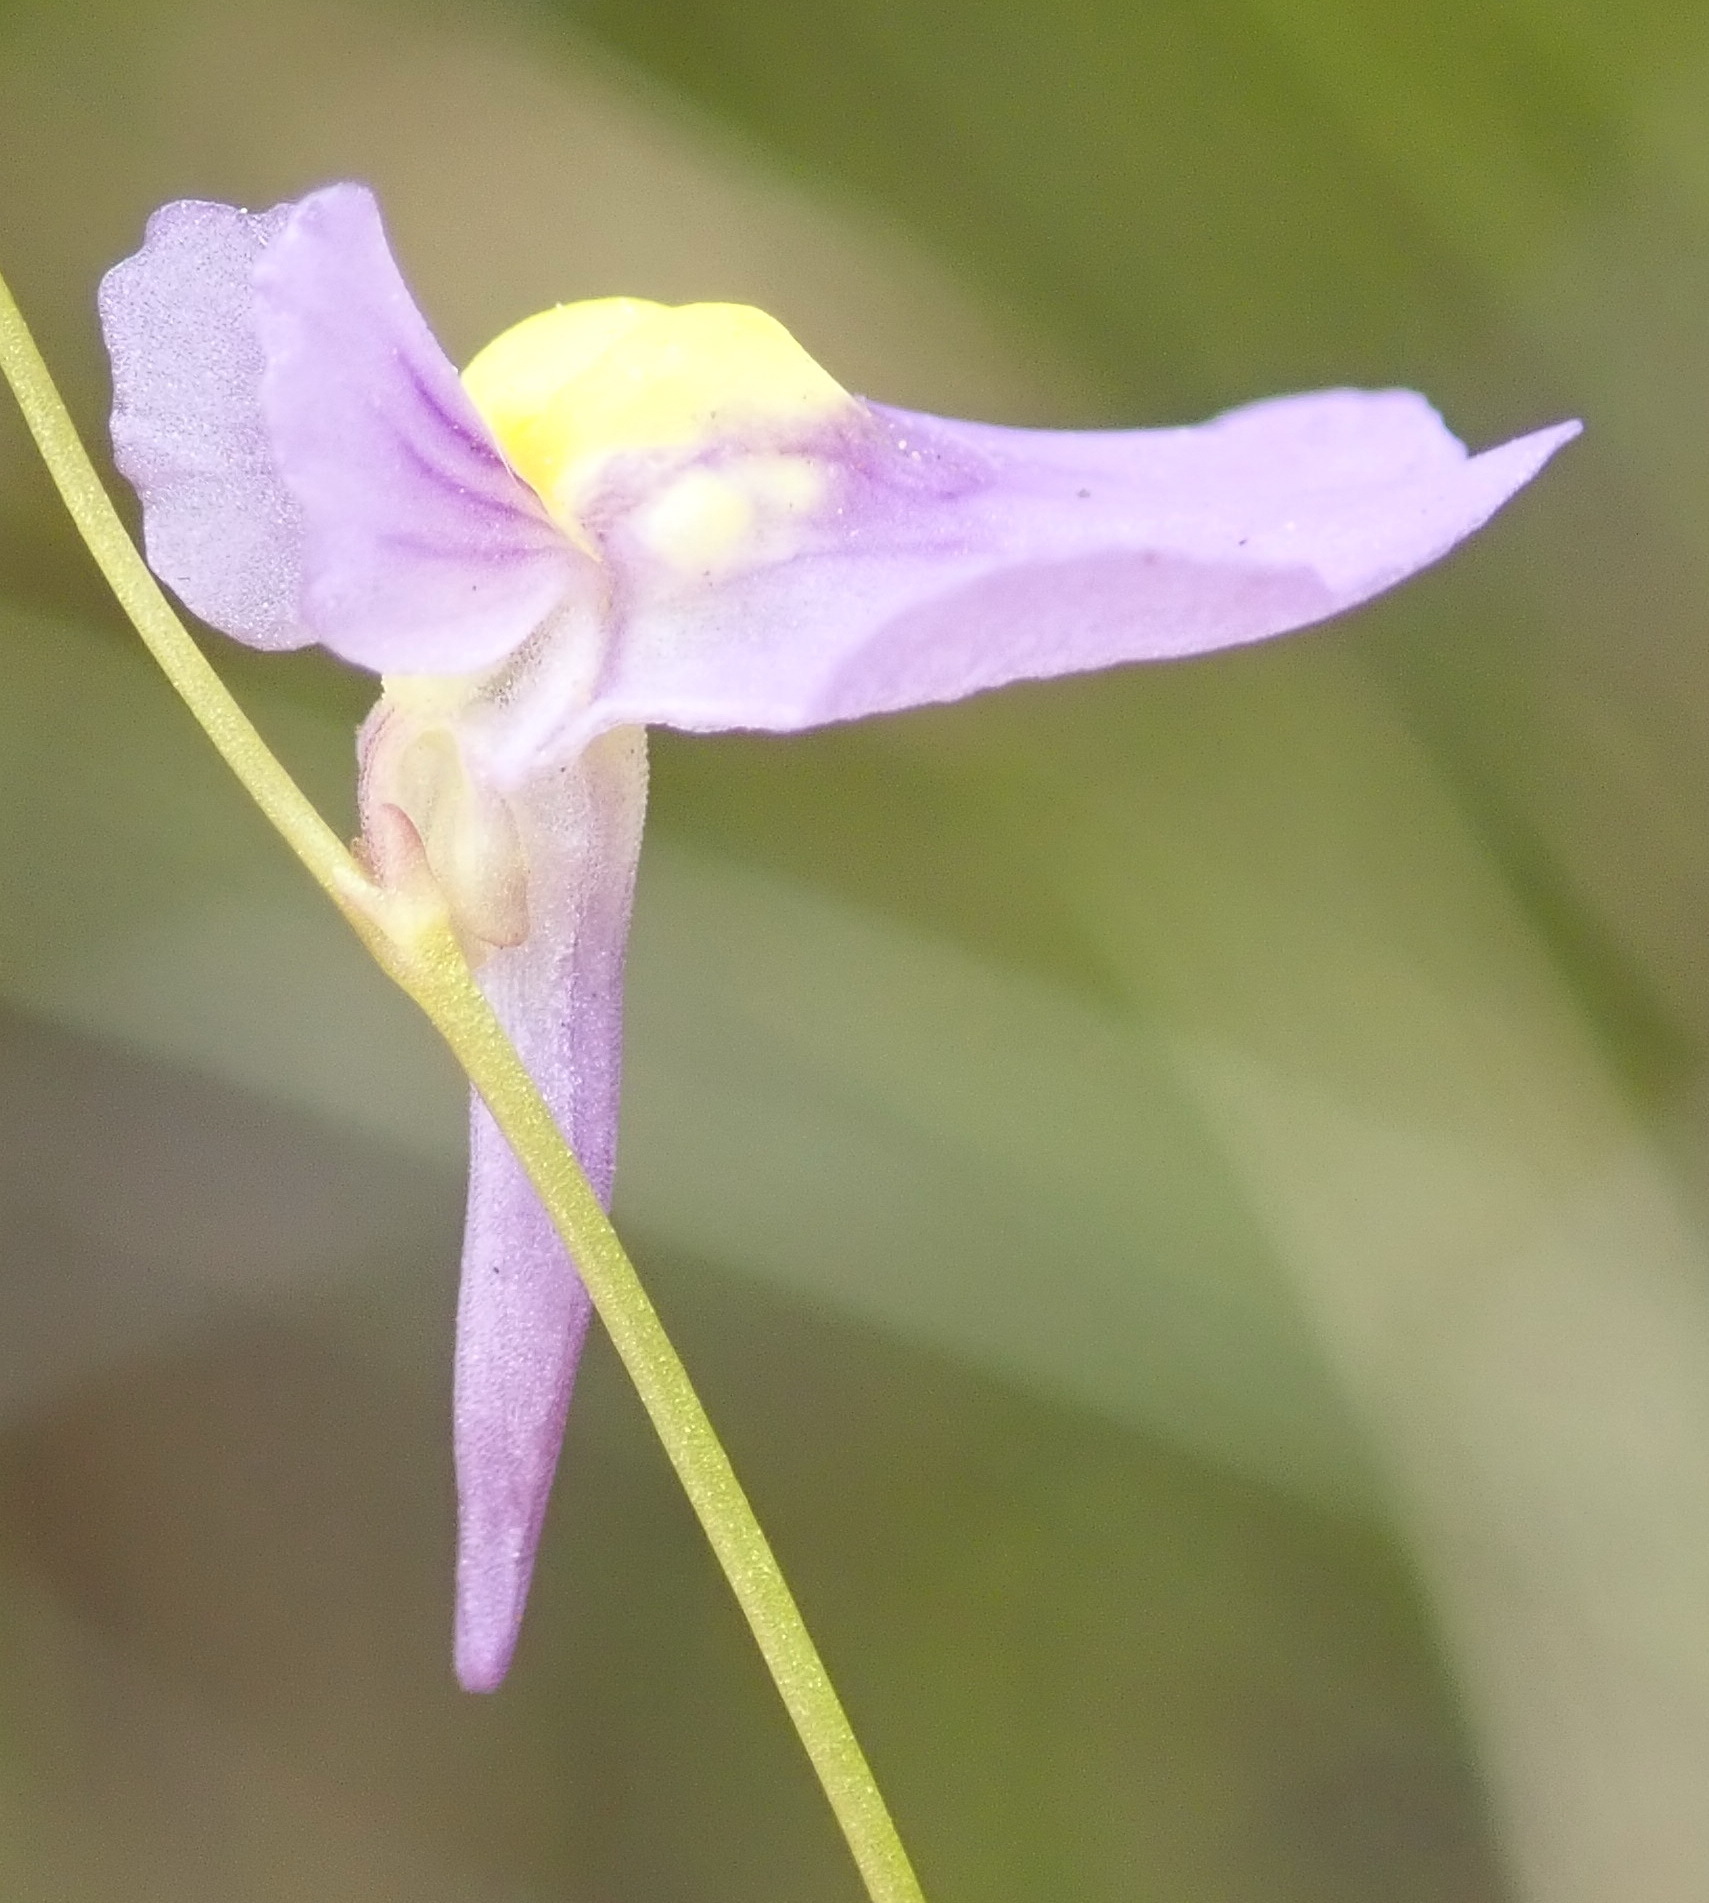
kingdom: Plantae
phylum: Tracheophyta
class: Magnoliopsida
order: Lamiales
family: Lentibulariaceae
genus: Utricularia
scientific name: Utricularia bisquamata
